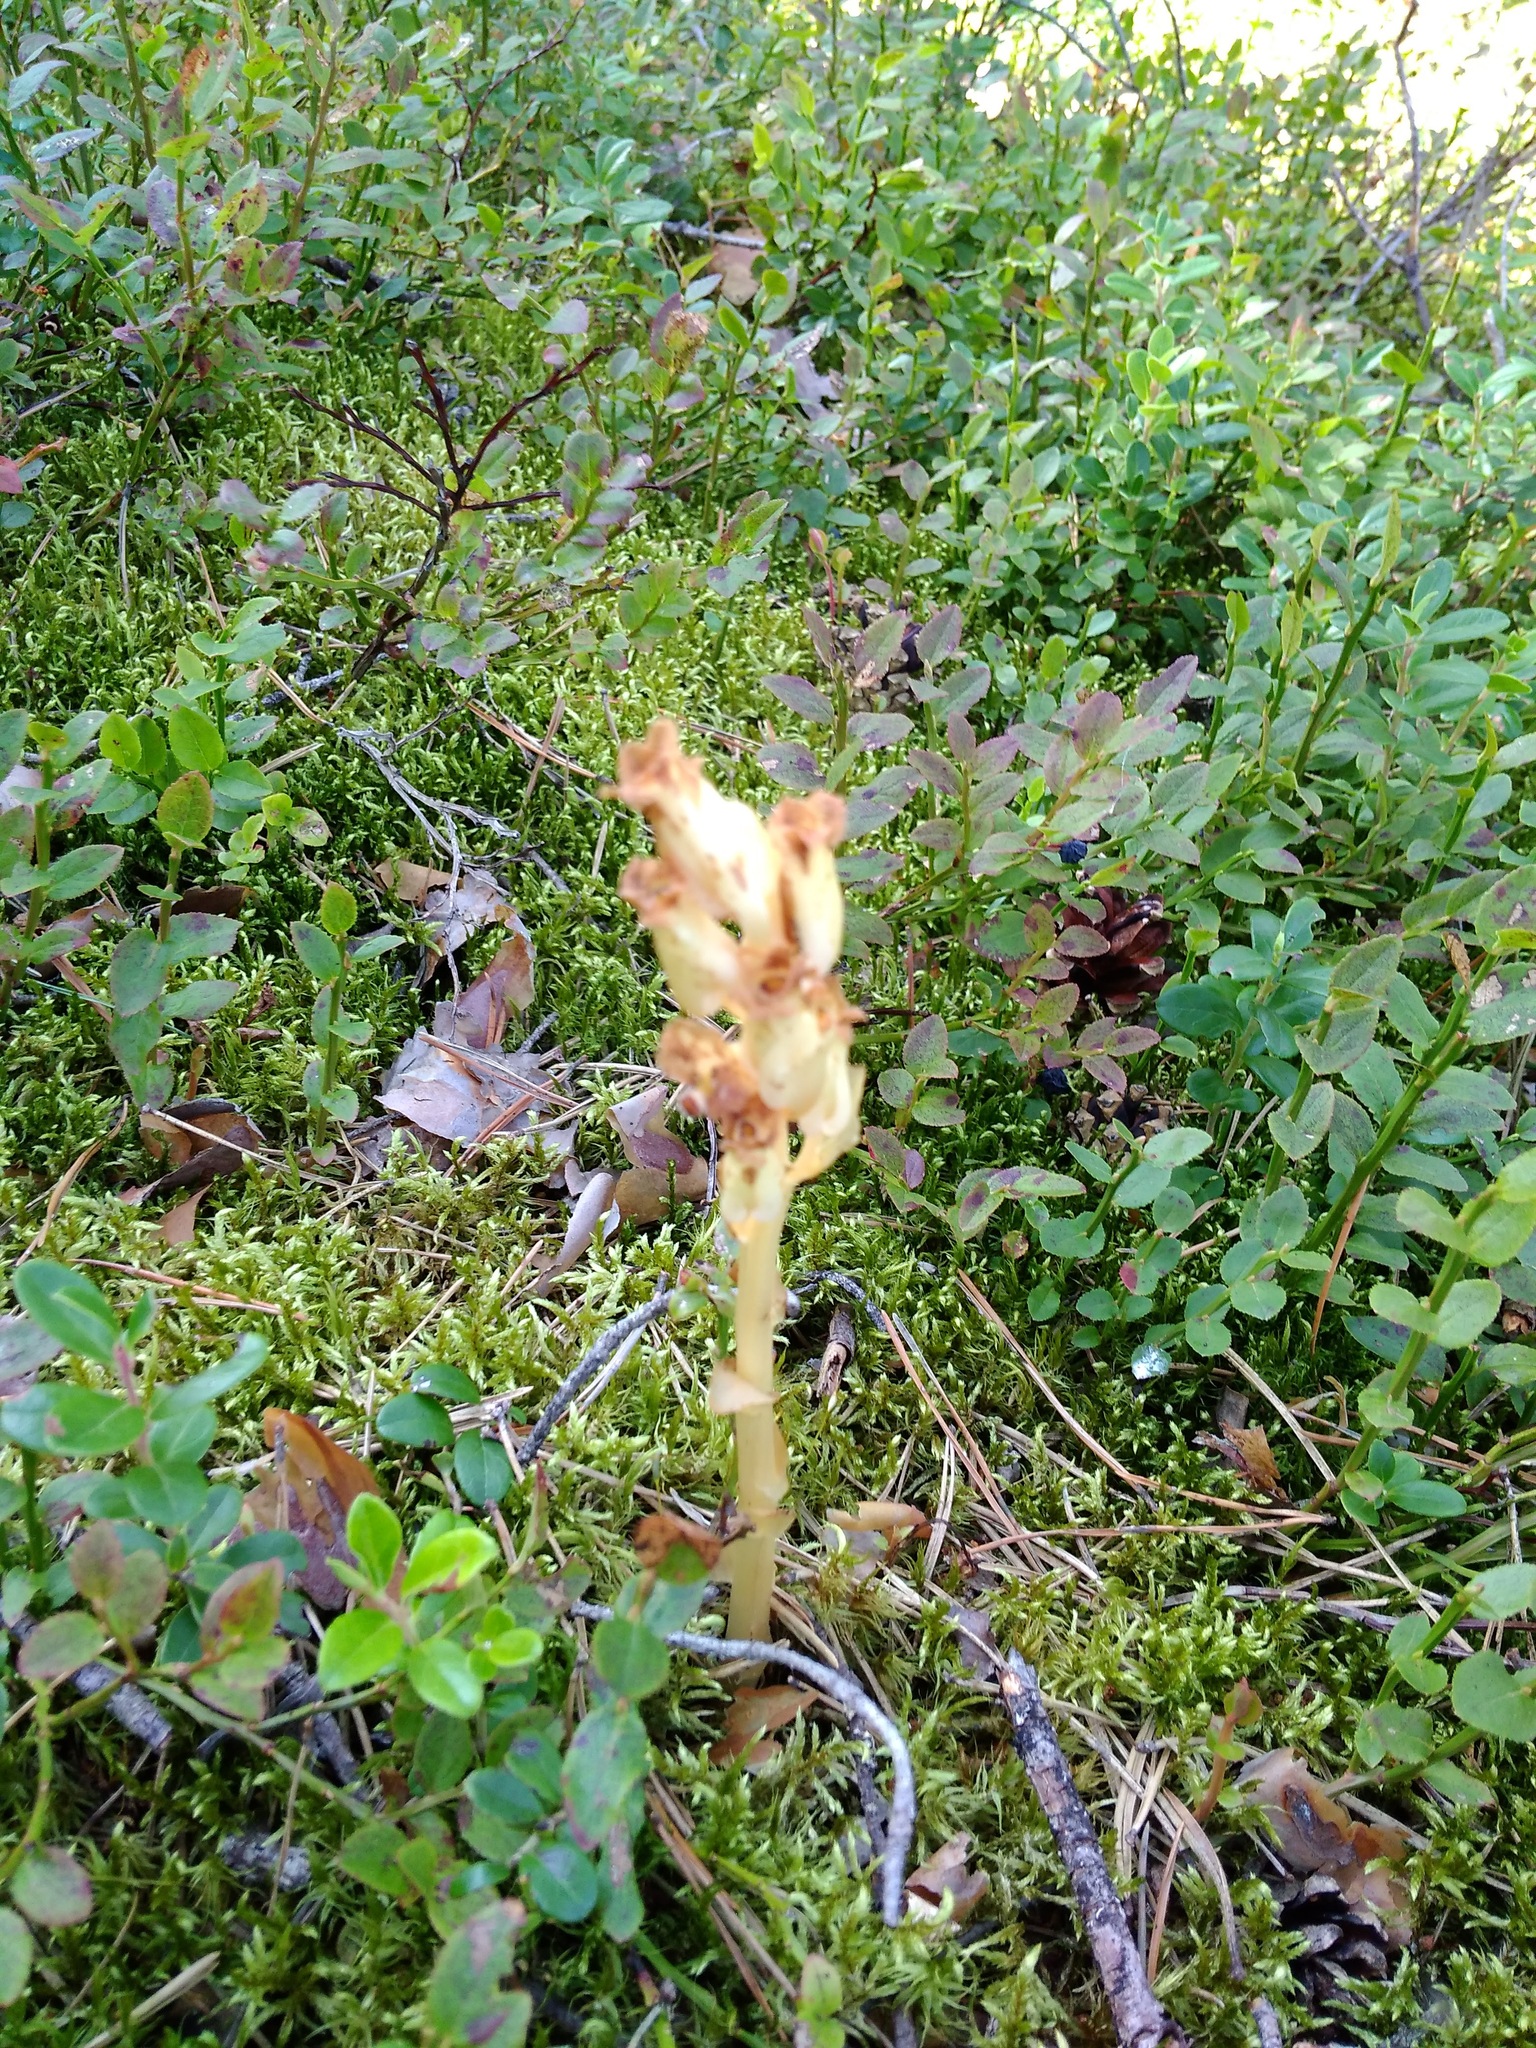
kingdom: Plantae
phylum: Tracheophyta
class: Magnoliopsida
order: Ericales
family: Ericaceae
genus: Hypopitys
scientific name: Hypopitys monotropa
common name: Yellow bird's-nest
